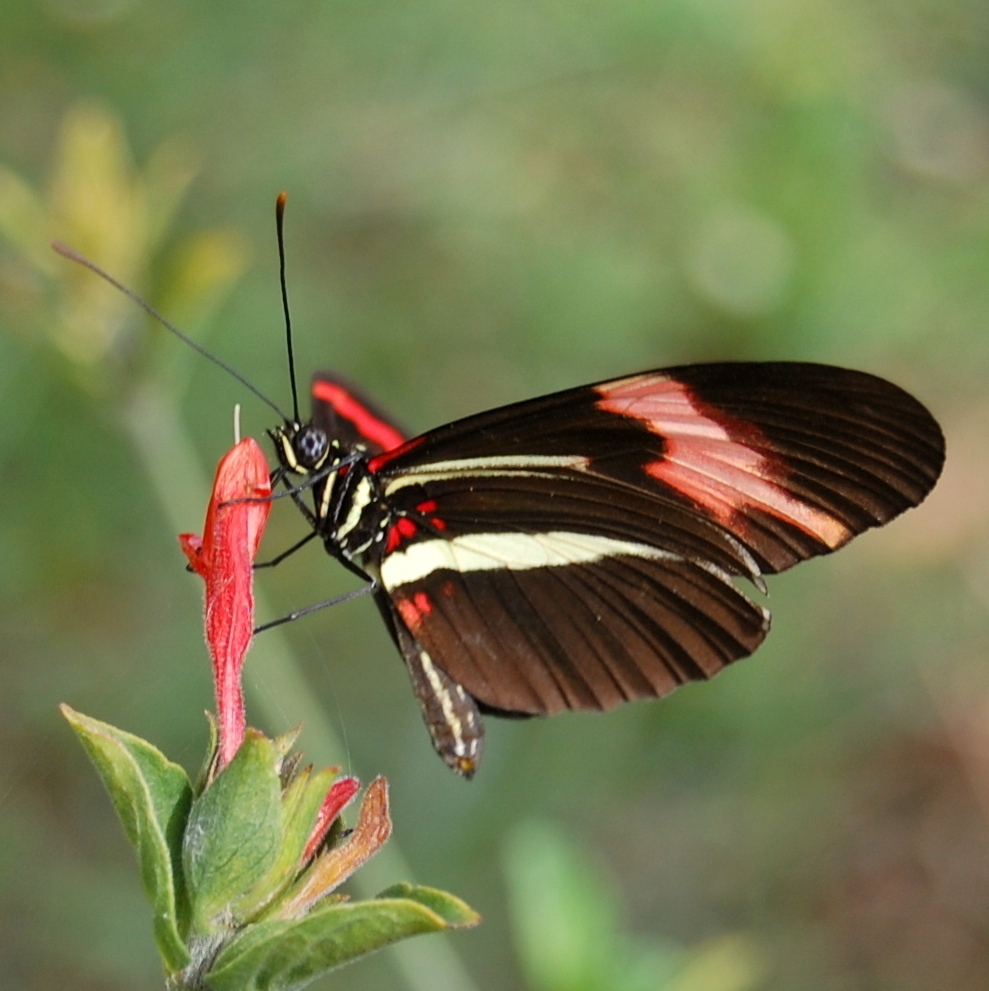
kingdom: Animalia
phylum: Arthropoda
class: Insecta
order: Lepidoptera
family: Nymphalidae
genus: Heliconius
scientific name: Heliconius erato
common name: Common patch longwing
